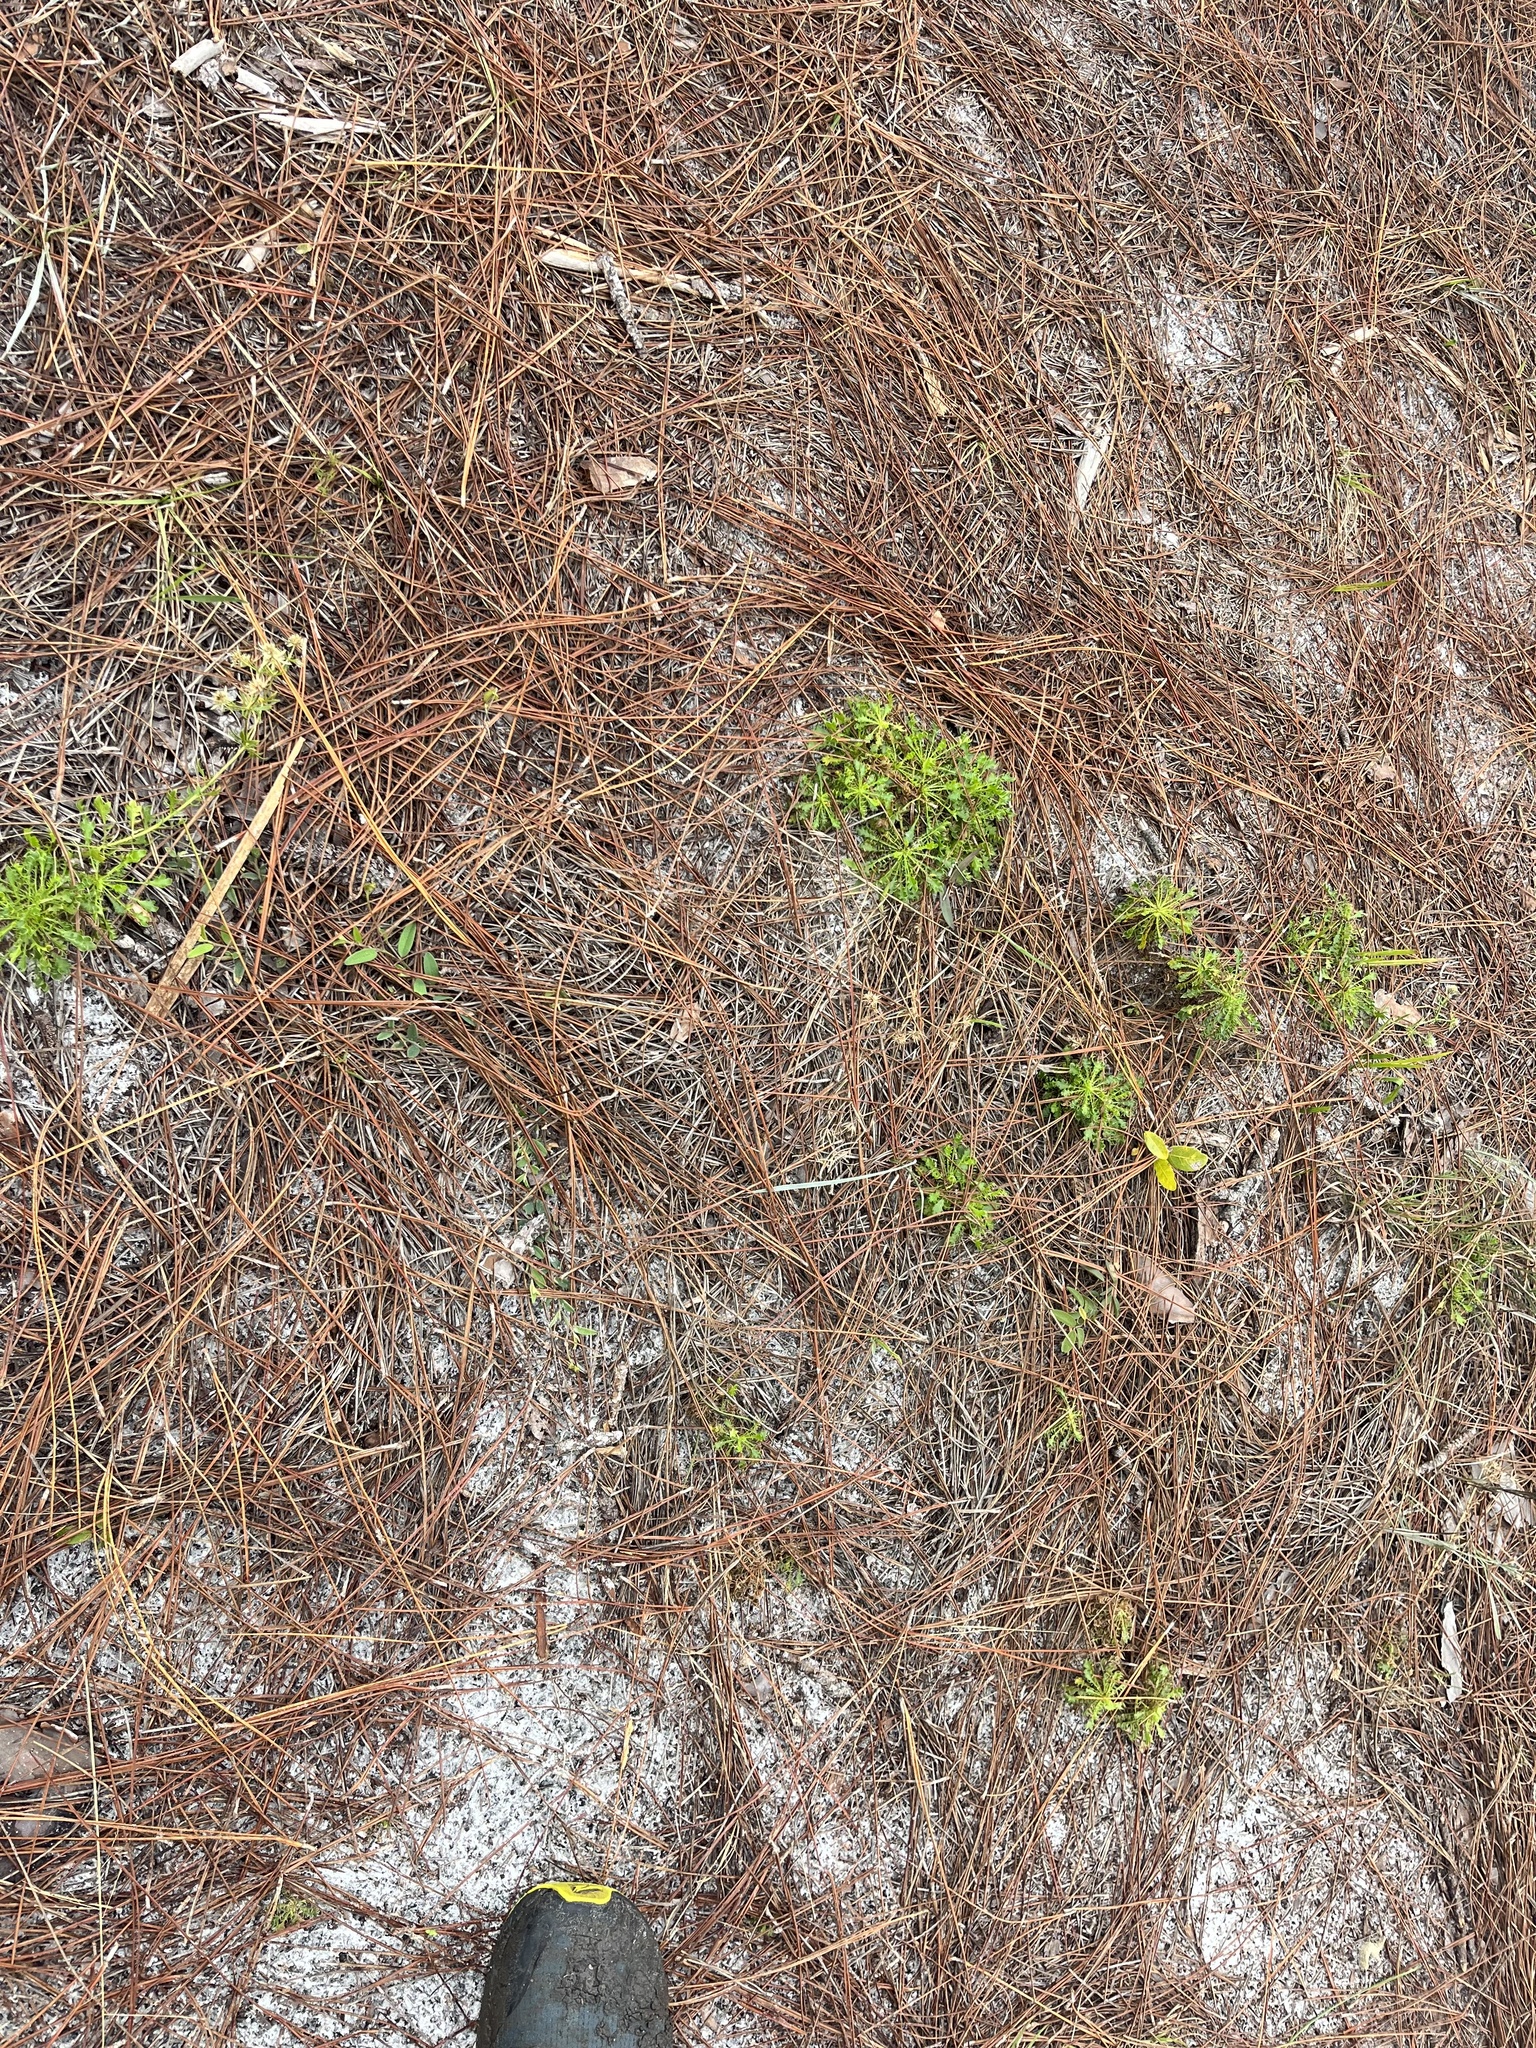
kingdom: Plantae
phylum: Tracheophyta
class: Magnoliopsida
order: Apiales
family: Apiaceae
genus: Eryngium
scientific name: Eryngium aromaticum
